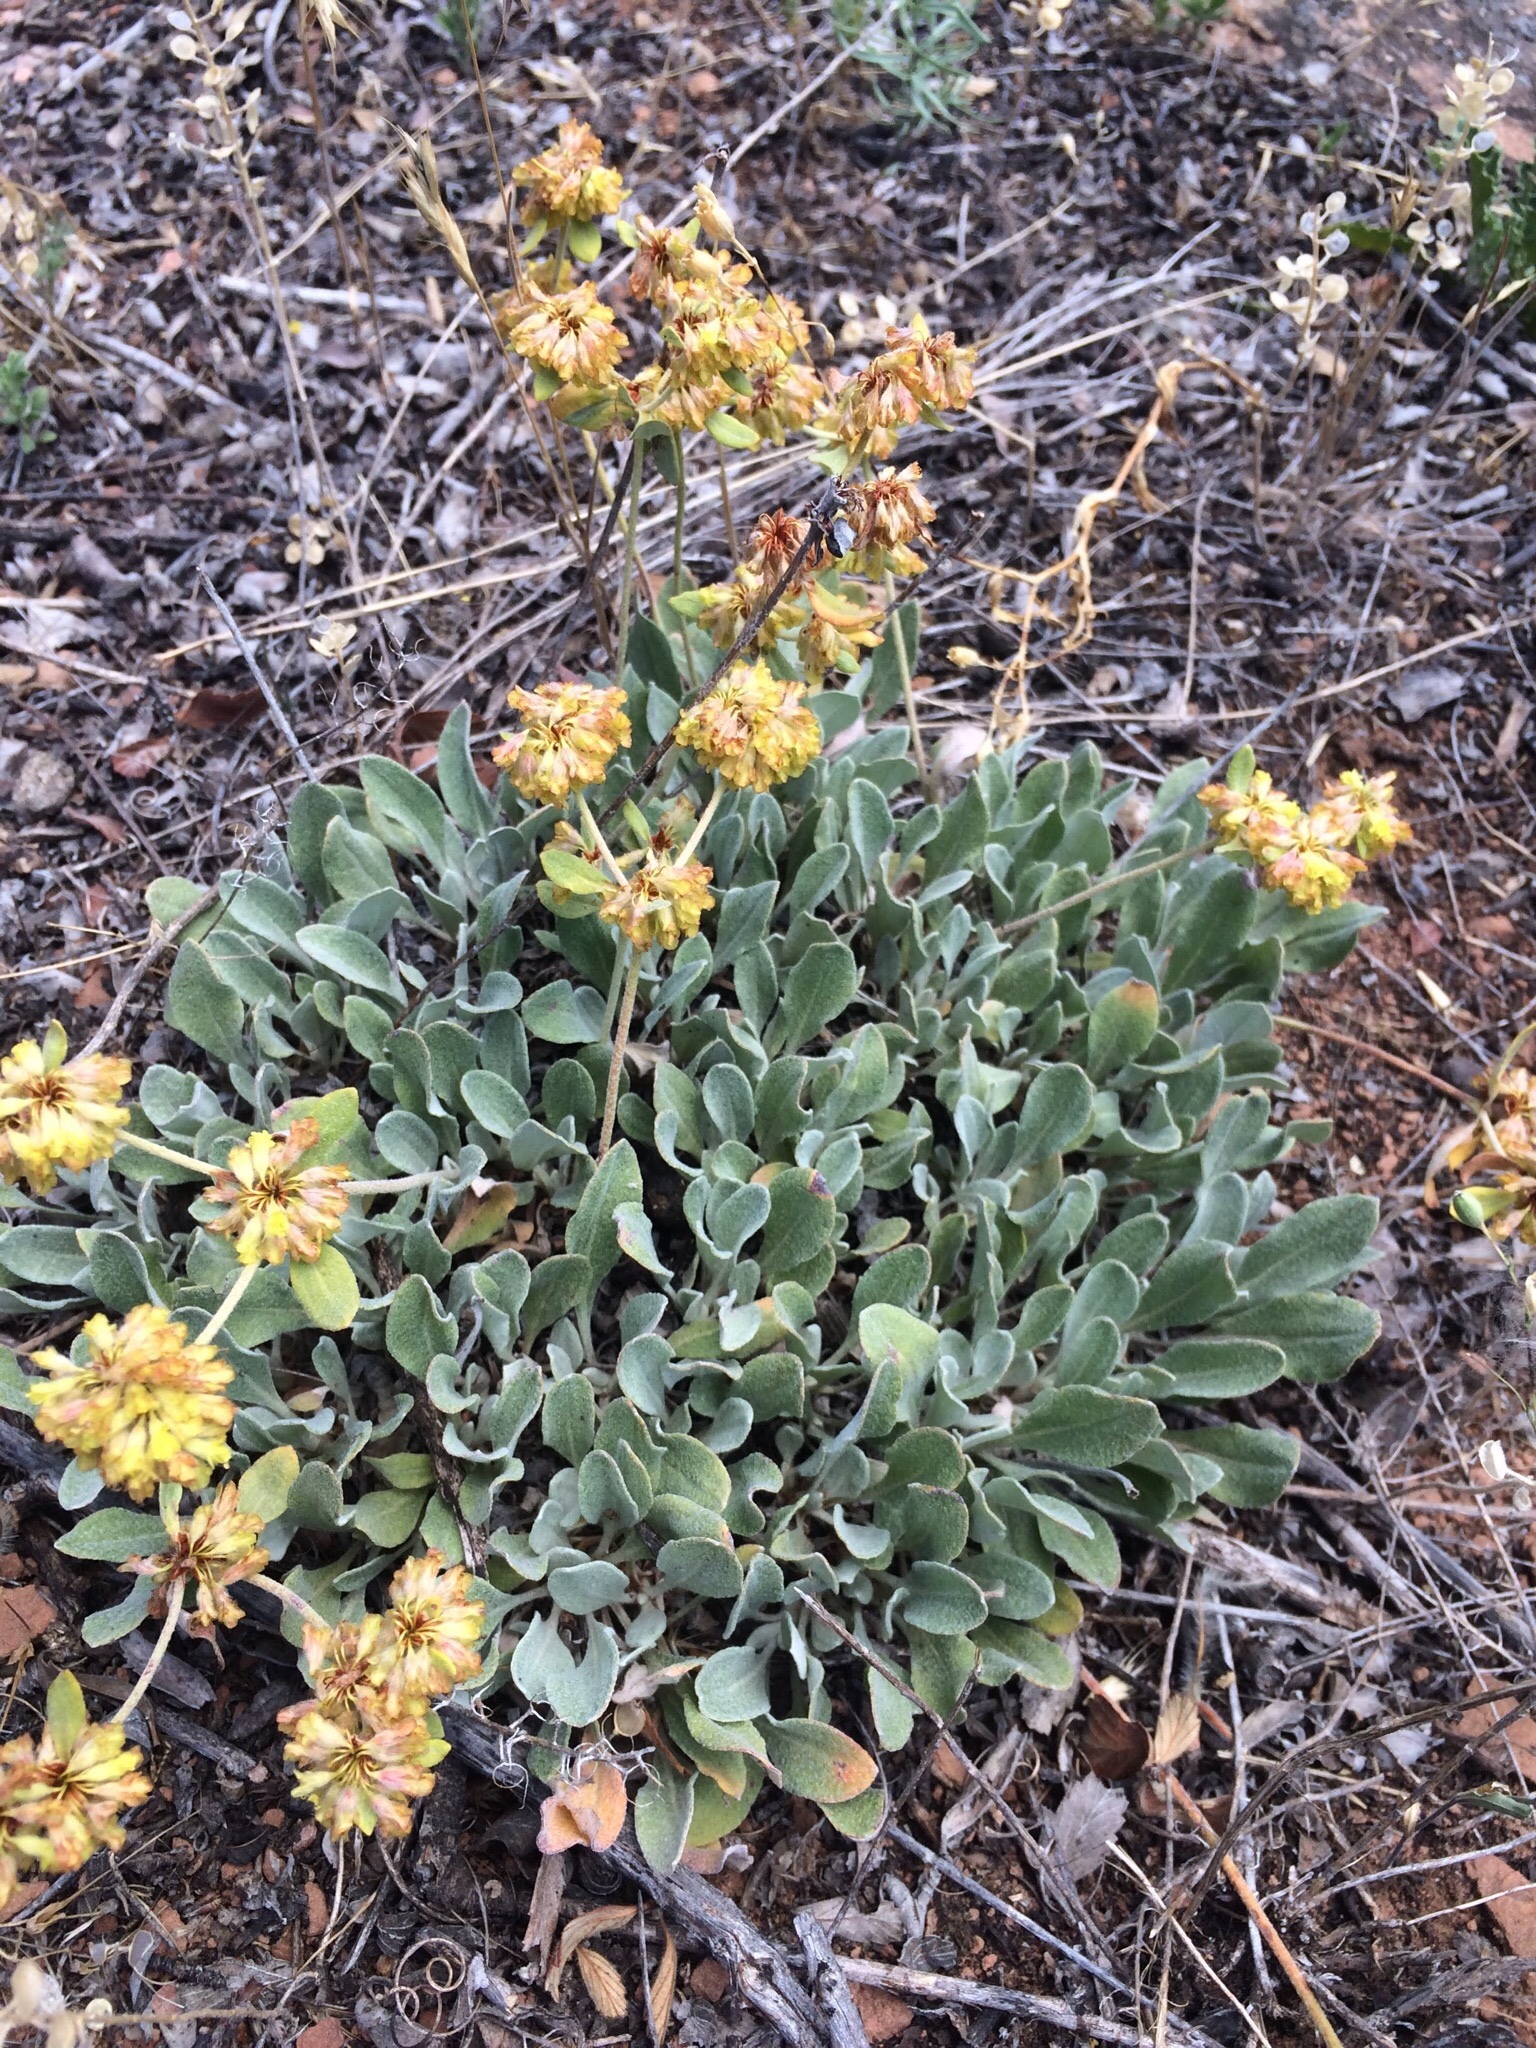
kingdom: Plantae
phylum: Tracheophyta
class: Magnoliopsida
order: Caryophyllales
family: Polygonaceae
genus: Eriogonum
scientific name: Eriogonum flavum
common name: Alpine golden wild buckwheat
